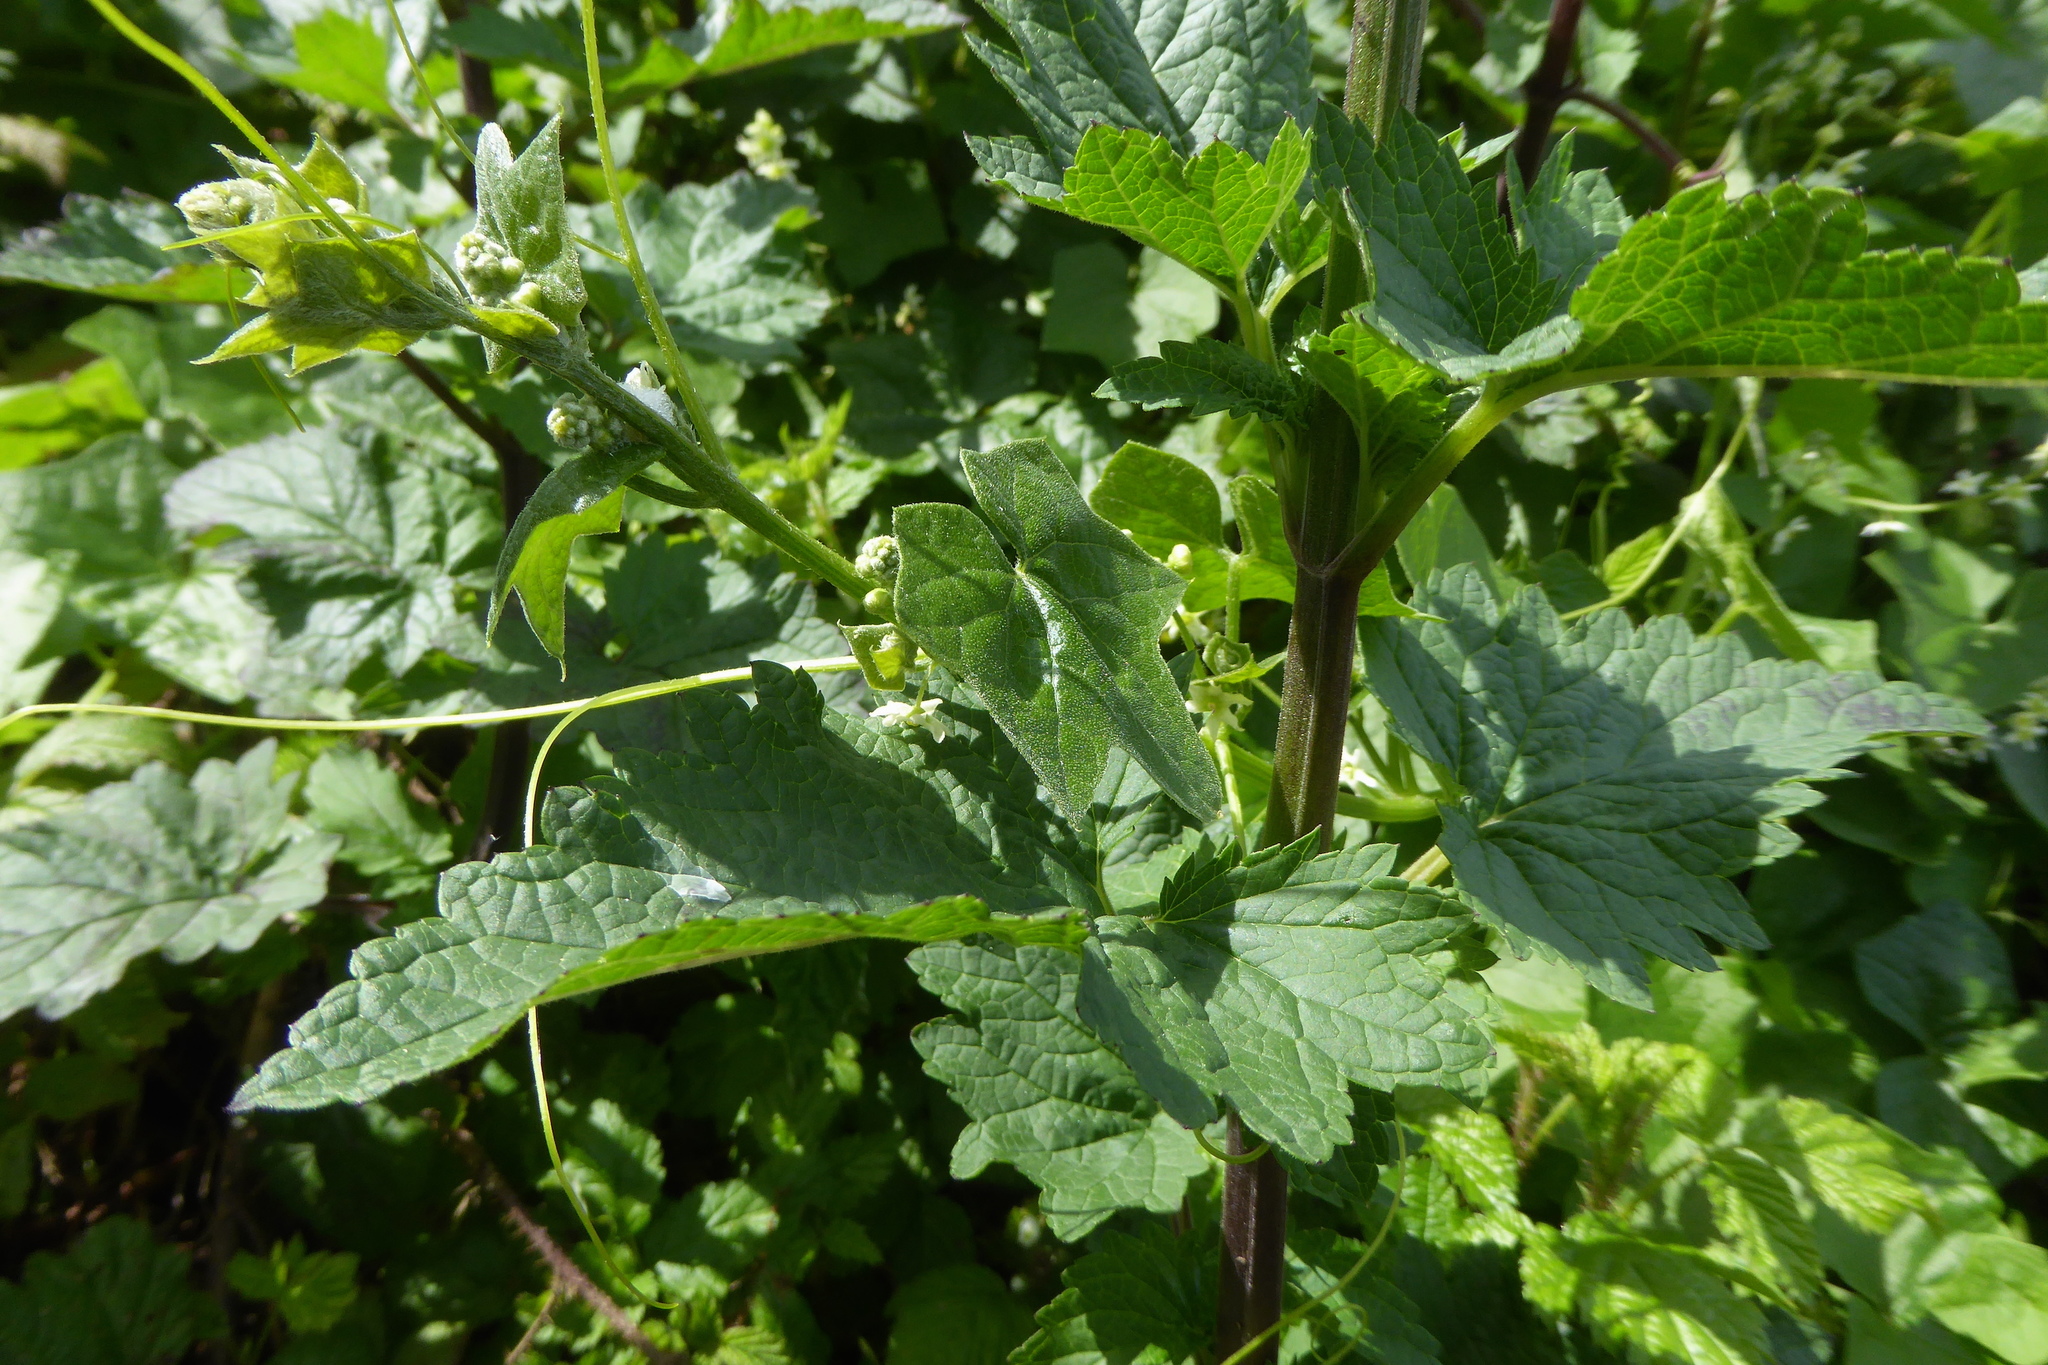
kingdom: Plantae
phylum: Tracheophyta
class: Magnoliopsida
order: Lamiales
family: Scrophulariaceae
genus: Scrophularia
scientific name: Scrophularia californica
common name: California figwort
